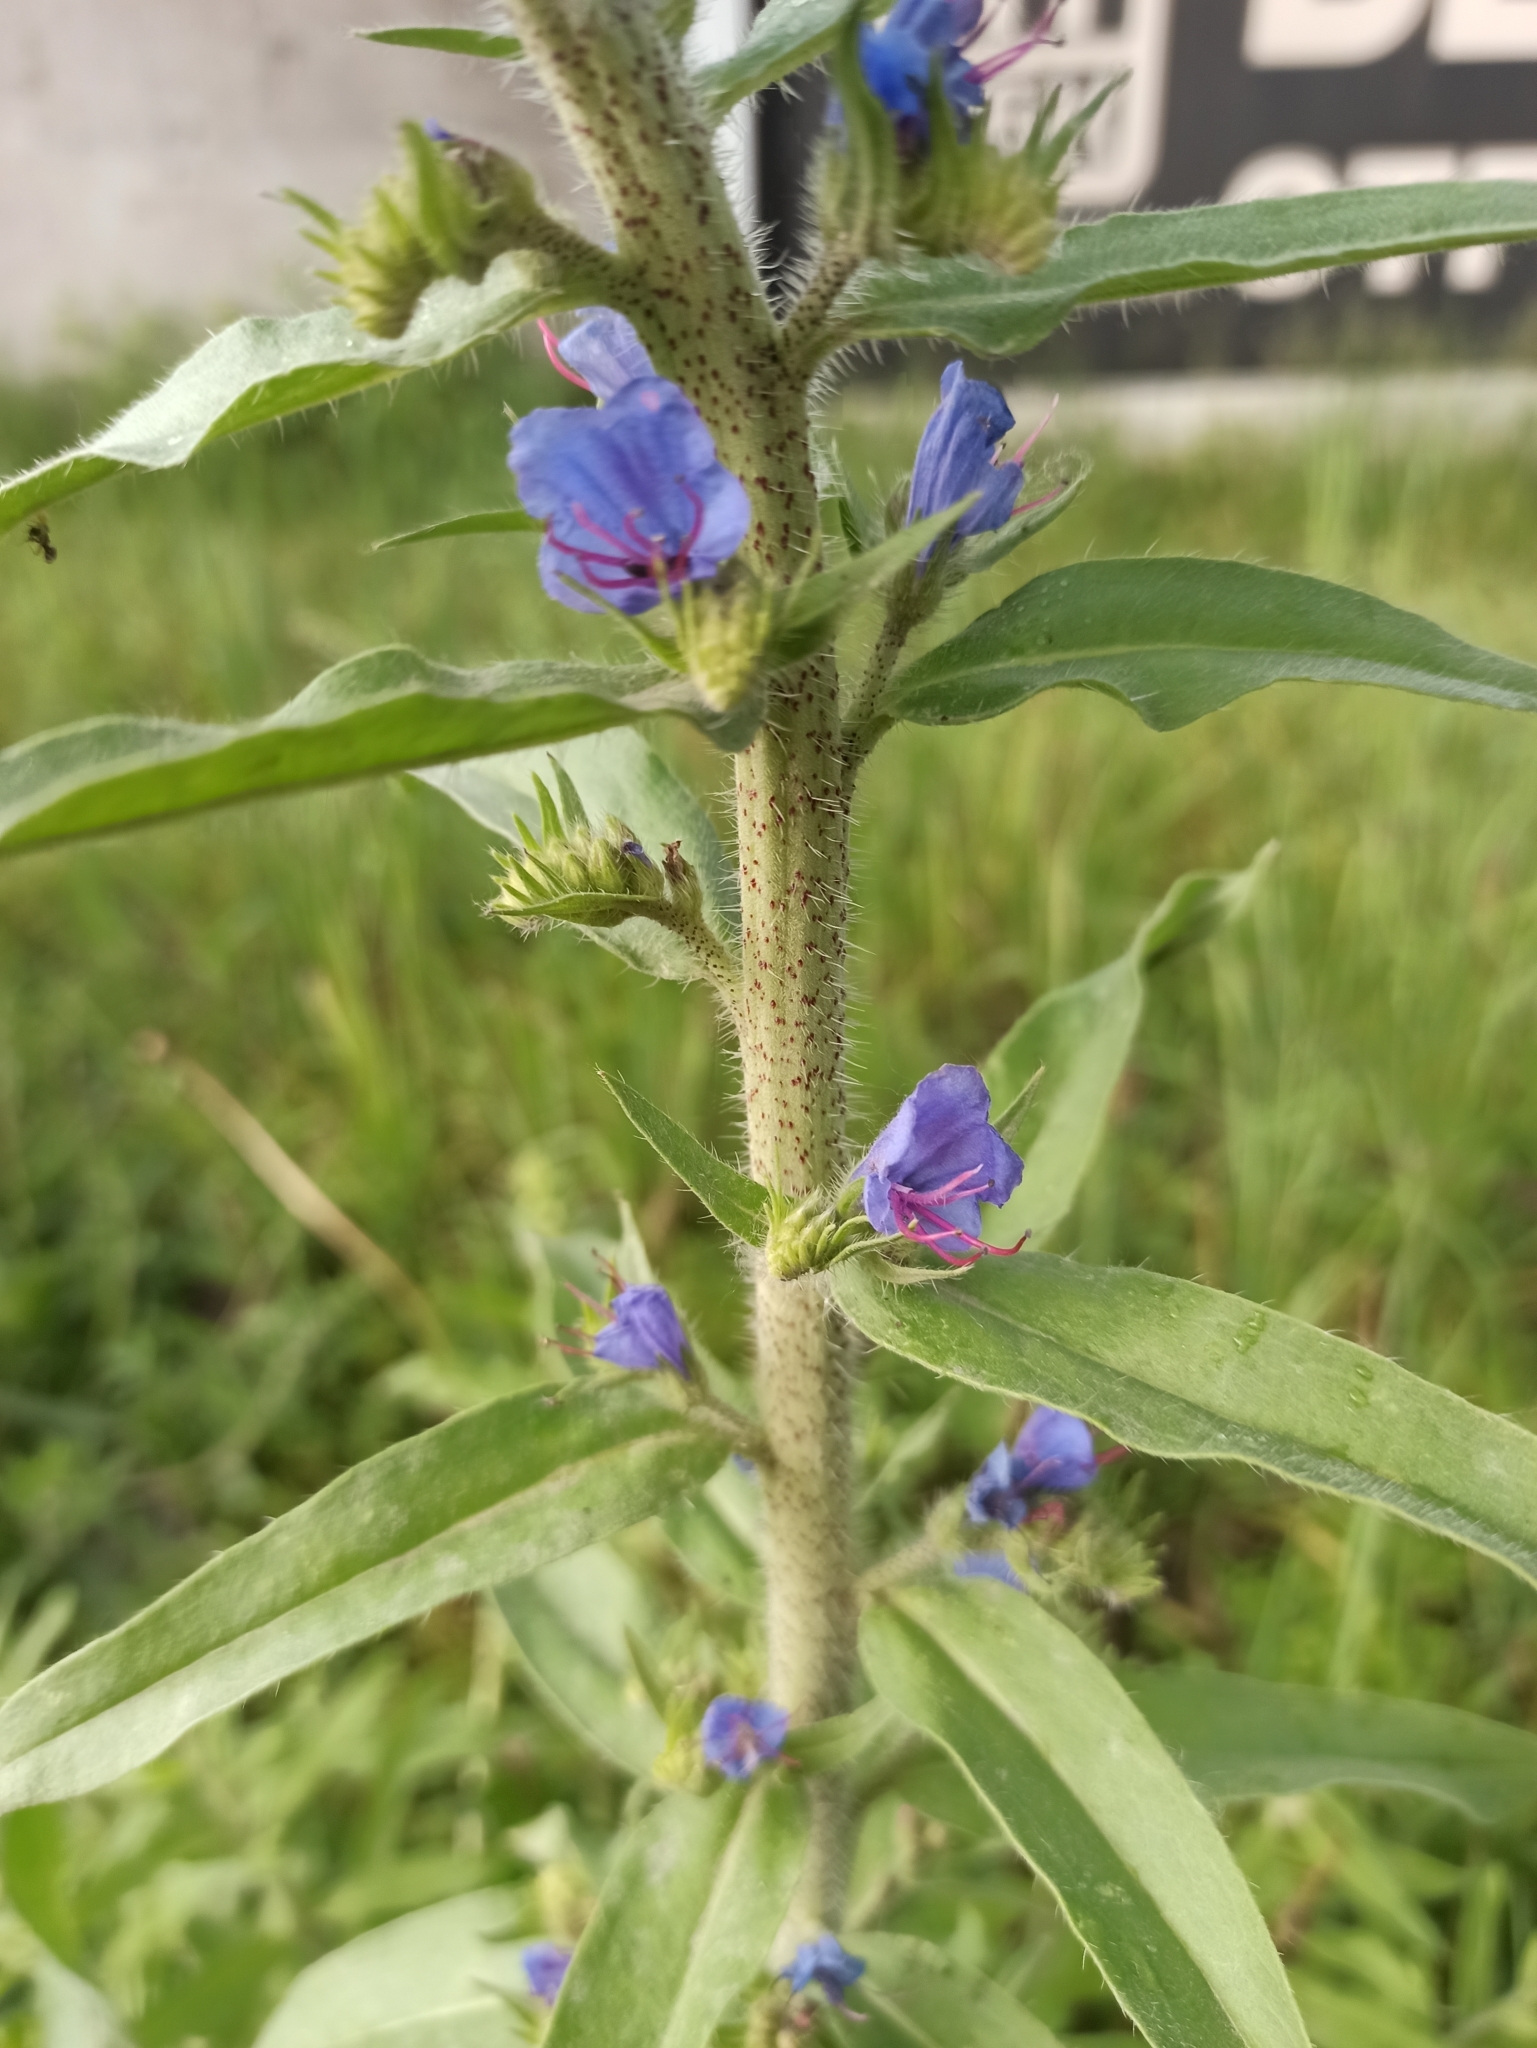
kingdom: Plantae
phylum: Tracheophyta
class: Magnoliopsida
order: Boraginales
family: Boraginaceae
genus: Echium
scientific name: Echium vulgare
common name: Common viper's bugloss
